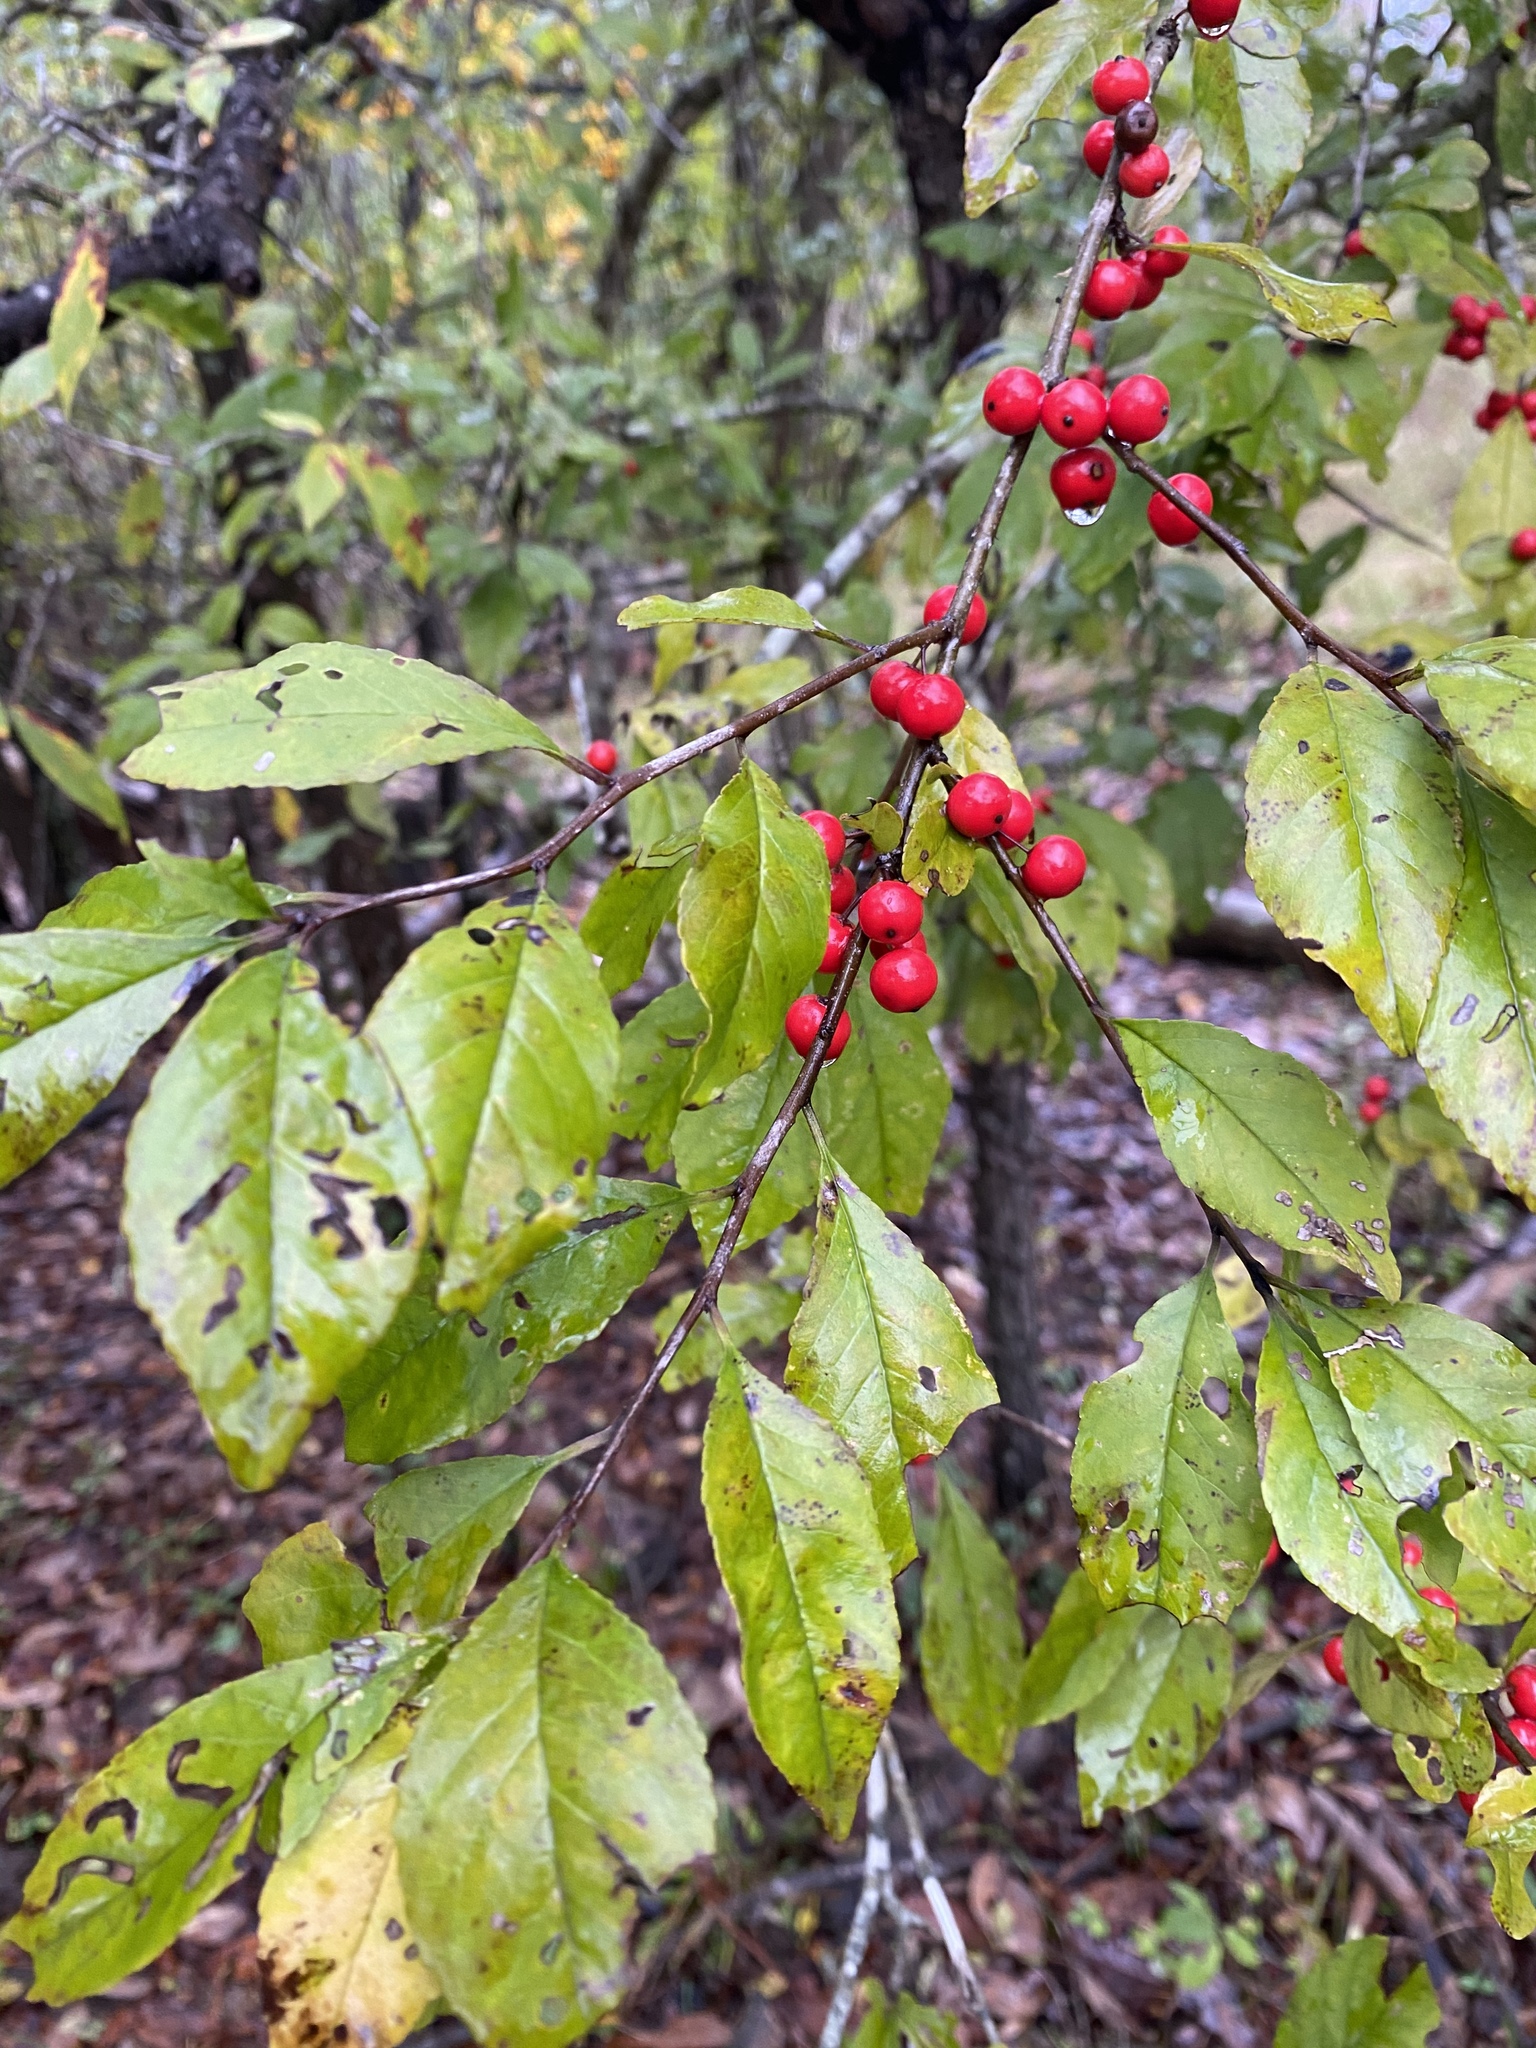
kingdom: Plantae
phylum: Tracheophyta
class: Magnoliopsida
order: Aquifoliales
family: Aquifoliaceae
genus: Ilex
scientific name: Ilex decidua
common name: Possum-haw
